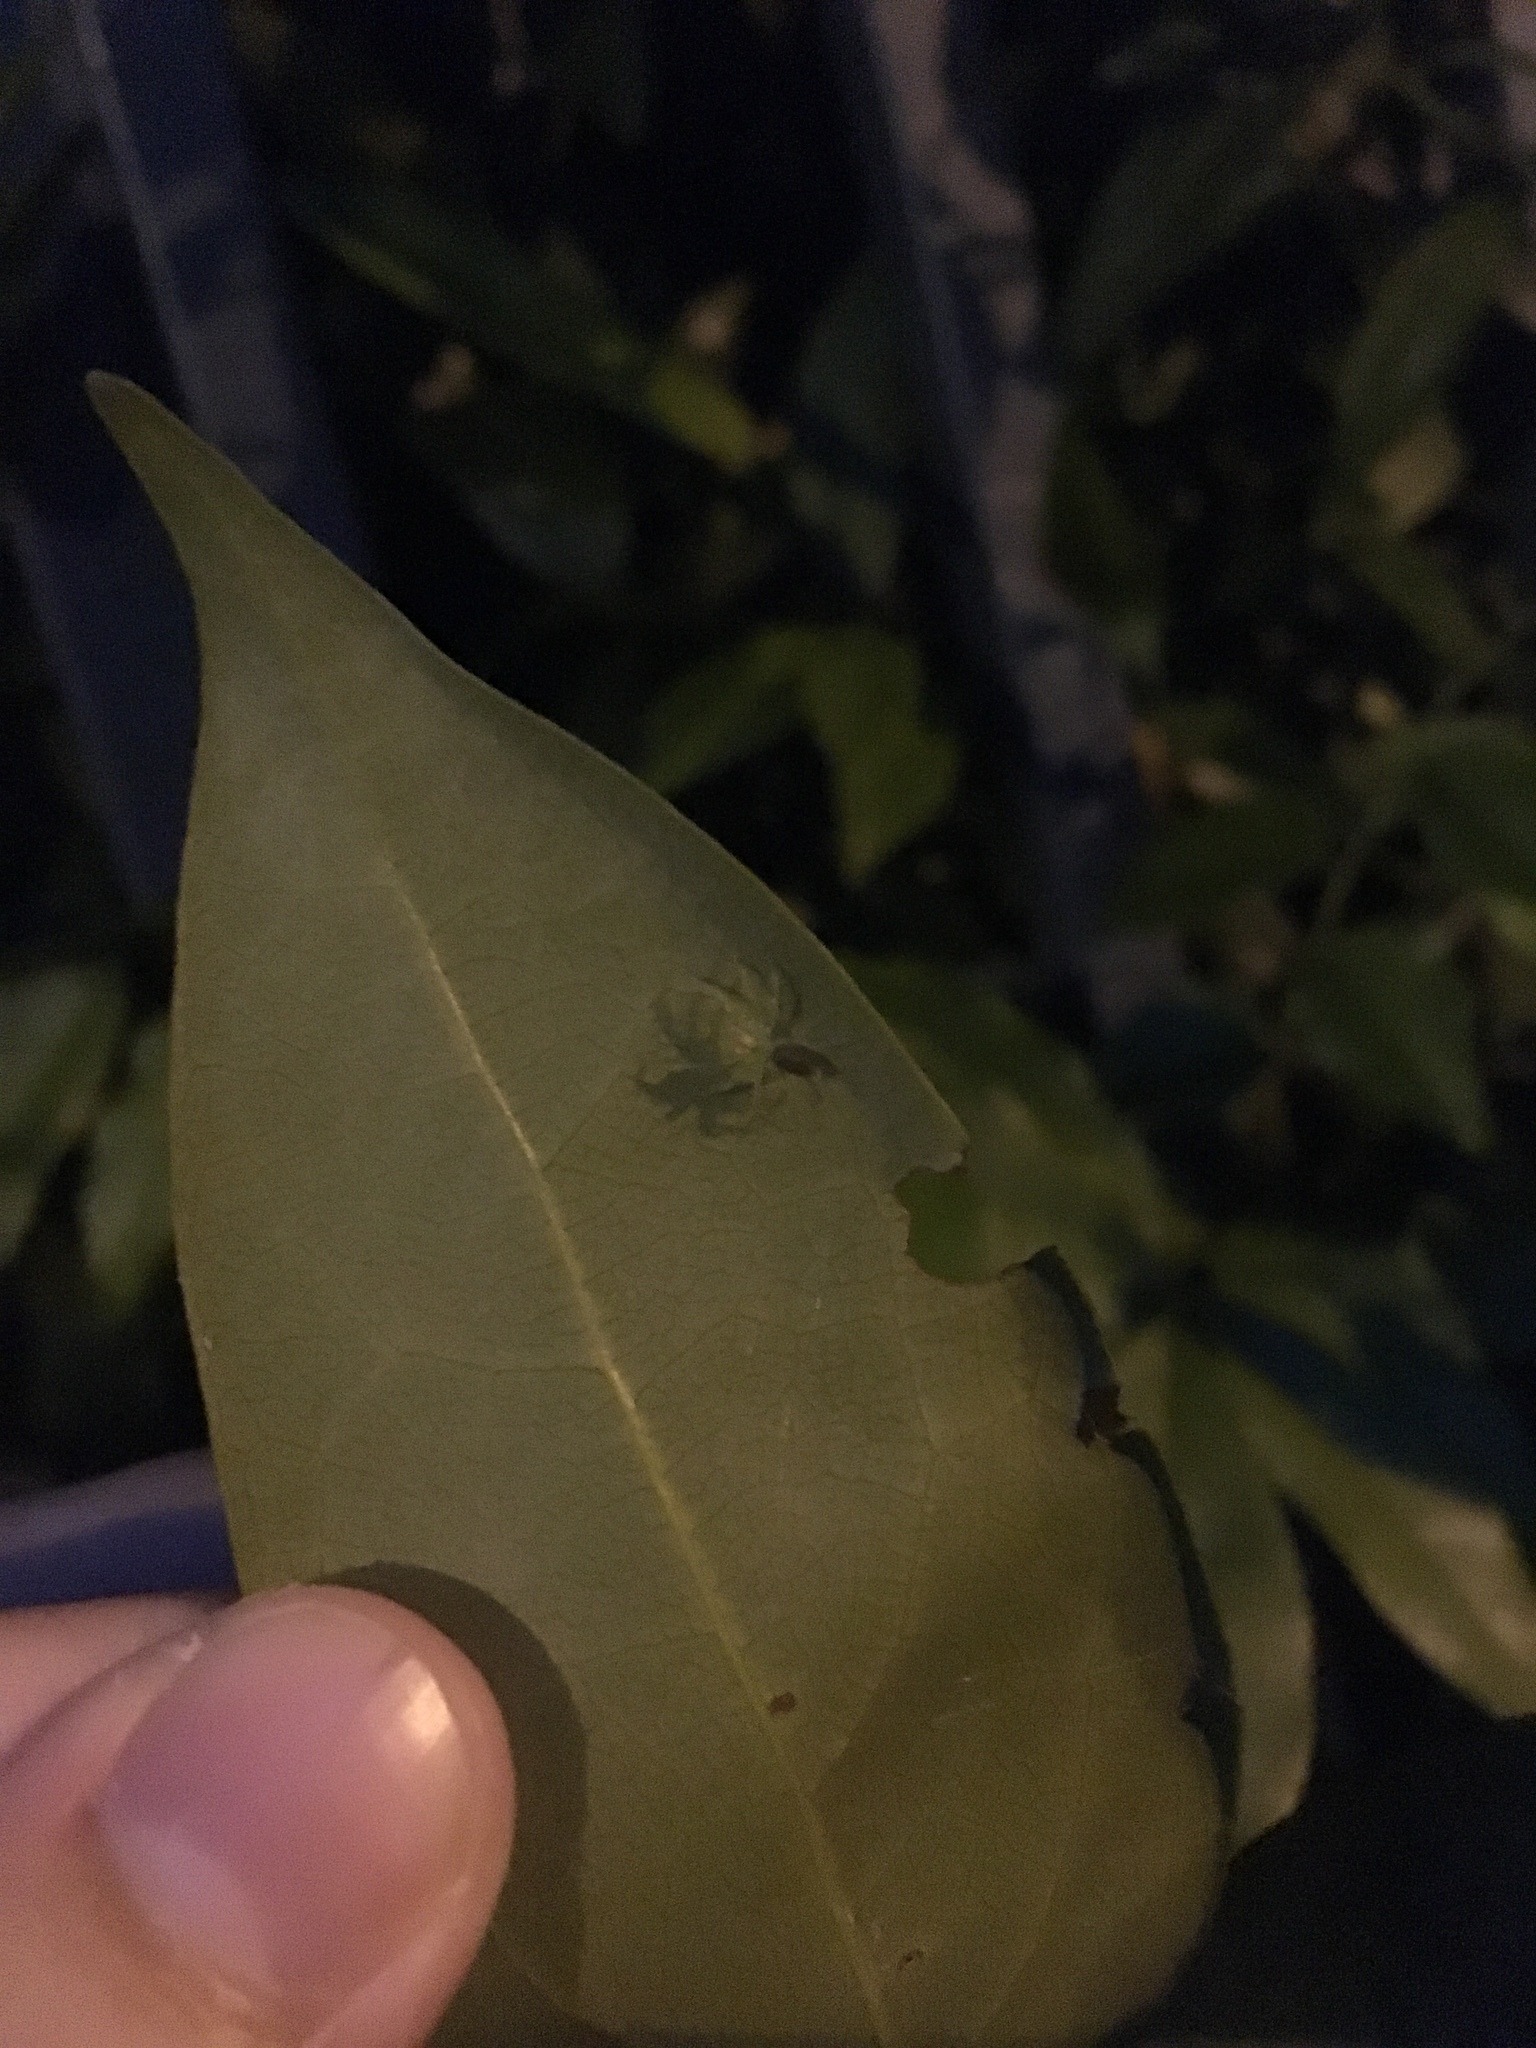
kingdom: Animalia
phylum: Arthropoda
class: Arachnida
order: Araneae
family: Salticidae
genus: Lyssomanes
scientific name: Lyssomanes viridis
